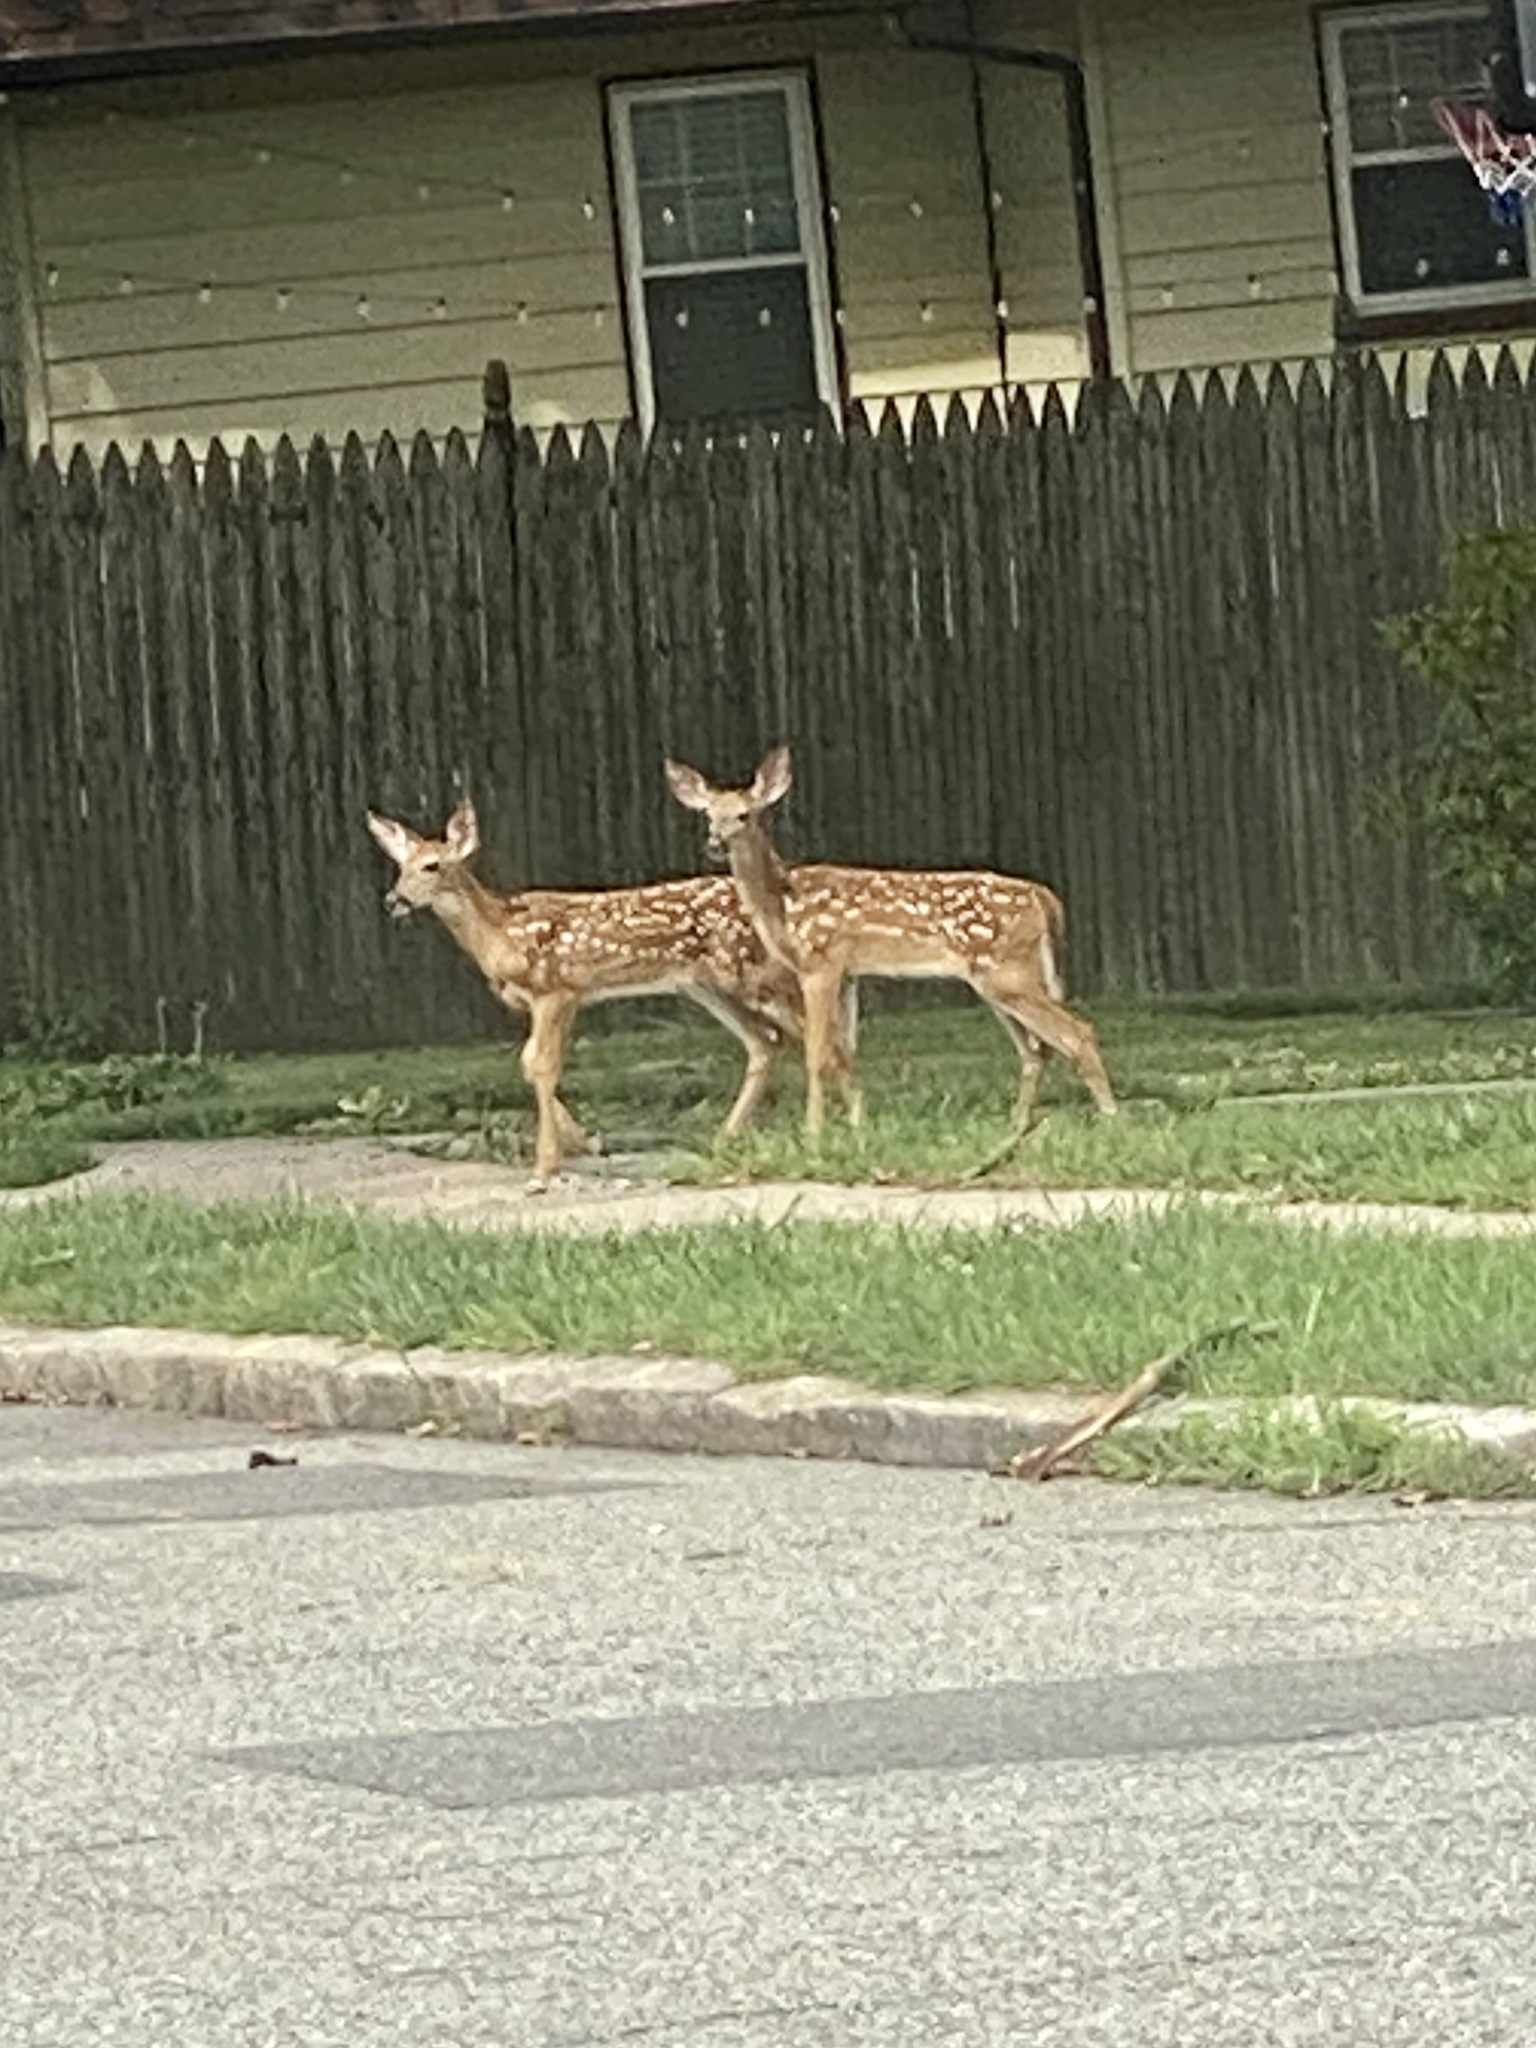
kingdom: Animalia
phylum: Chordata
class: Mammalia
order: Artiodactyla
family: Cervidae
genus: Odocoileus
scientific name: Odocoileus virginianus
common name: White-tailed deer
